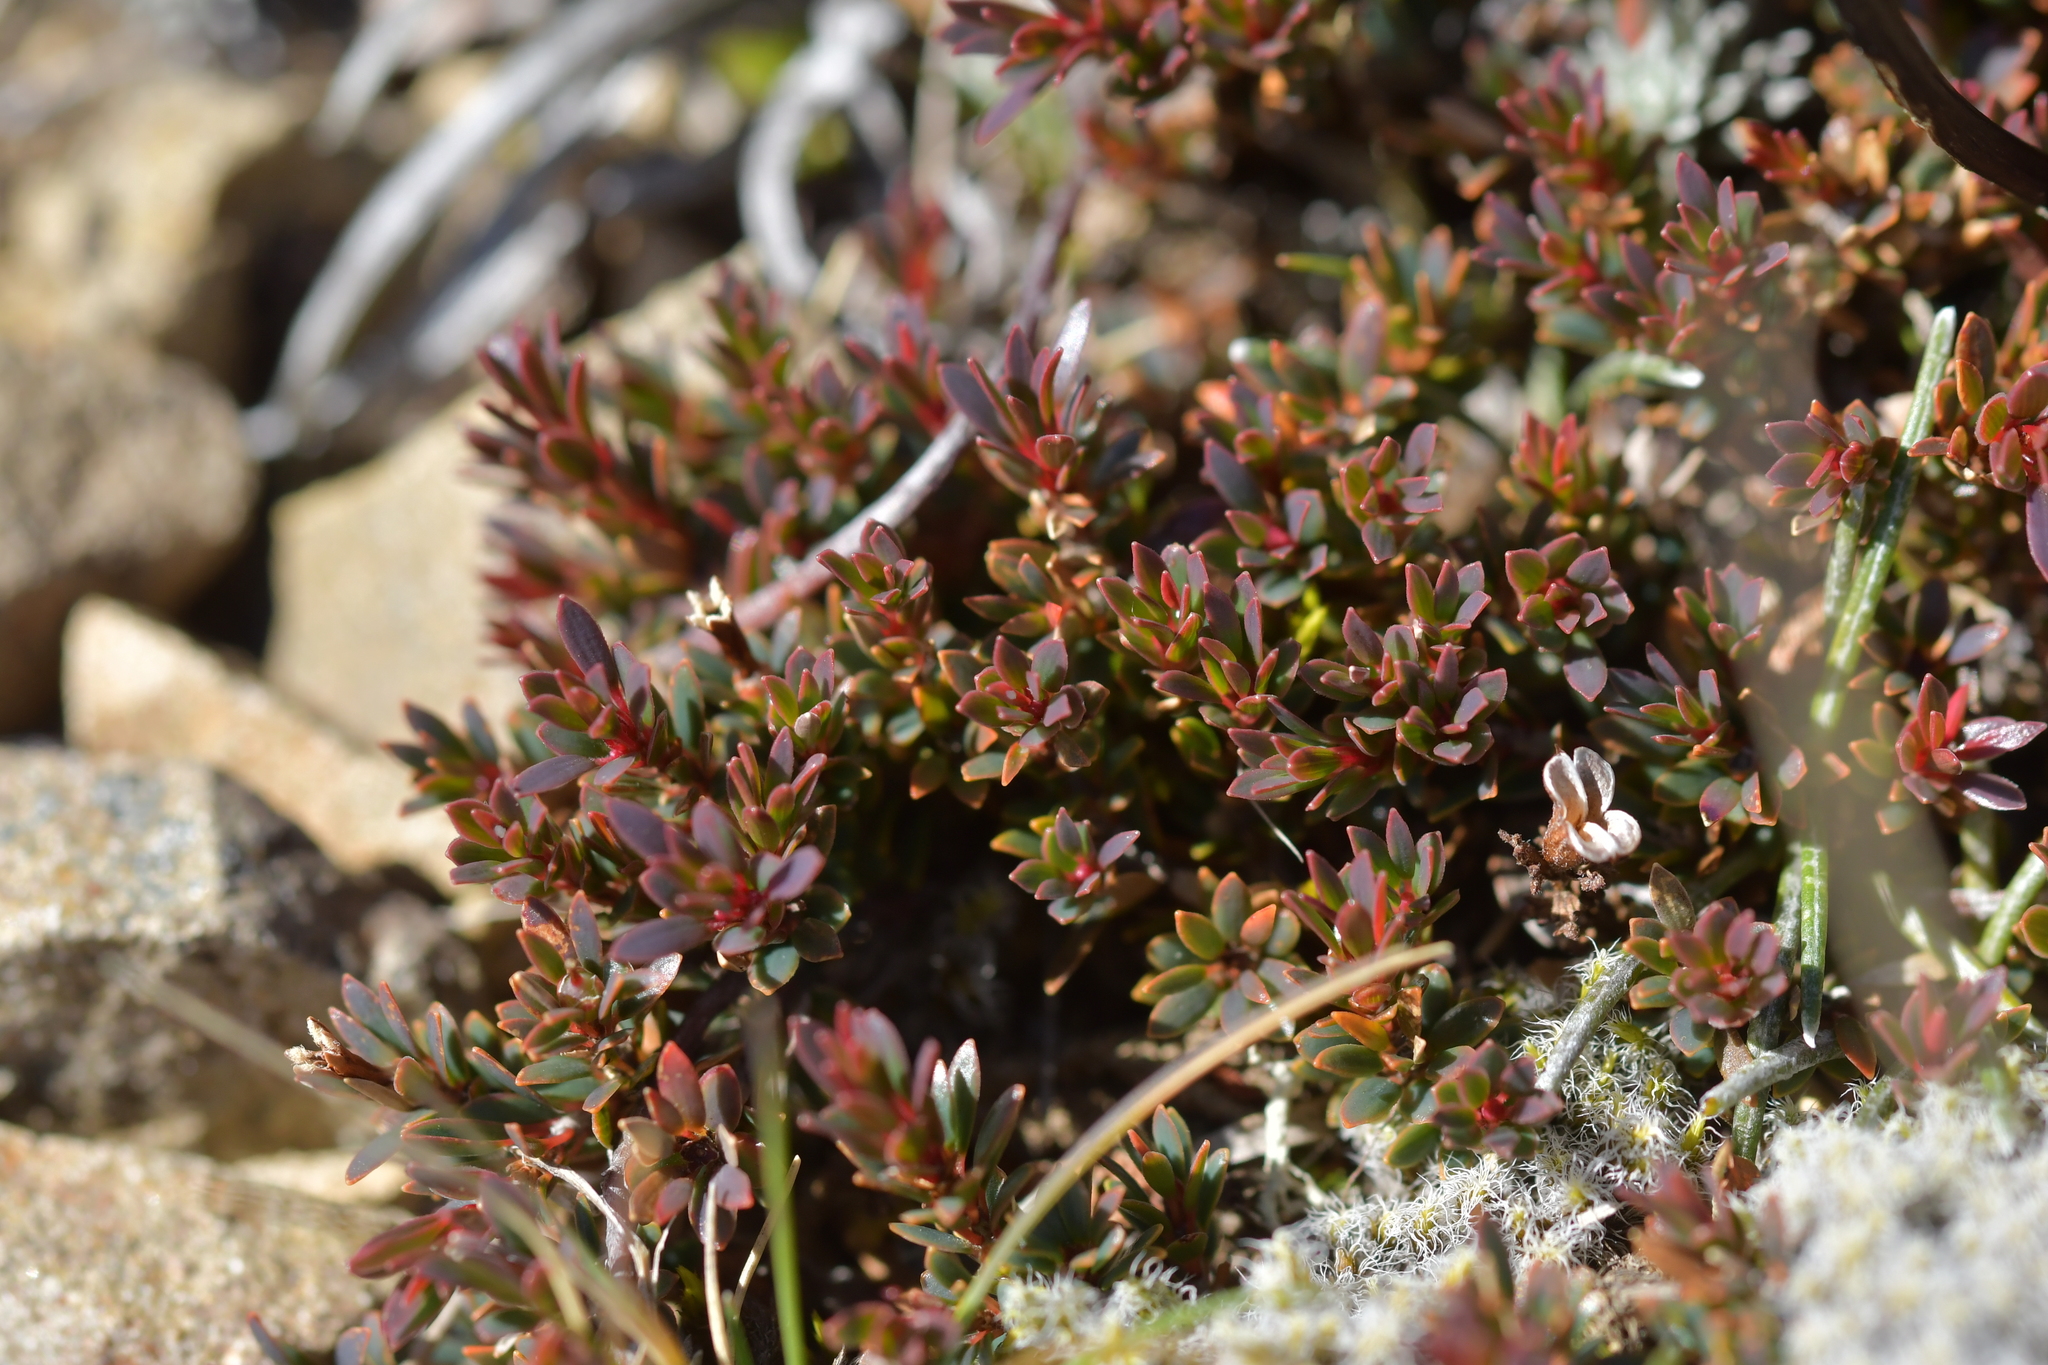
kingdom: Plantae
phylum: Tracheophyta
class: Magnoliopsida
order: Ericales
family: Ericaceae
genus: Pentachondra
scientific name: Pentachondra pumila
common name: Carpet-heath
